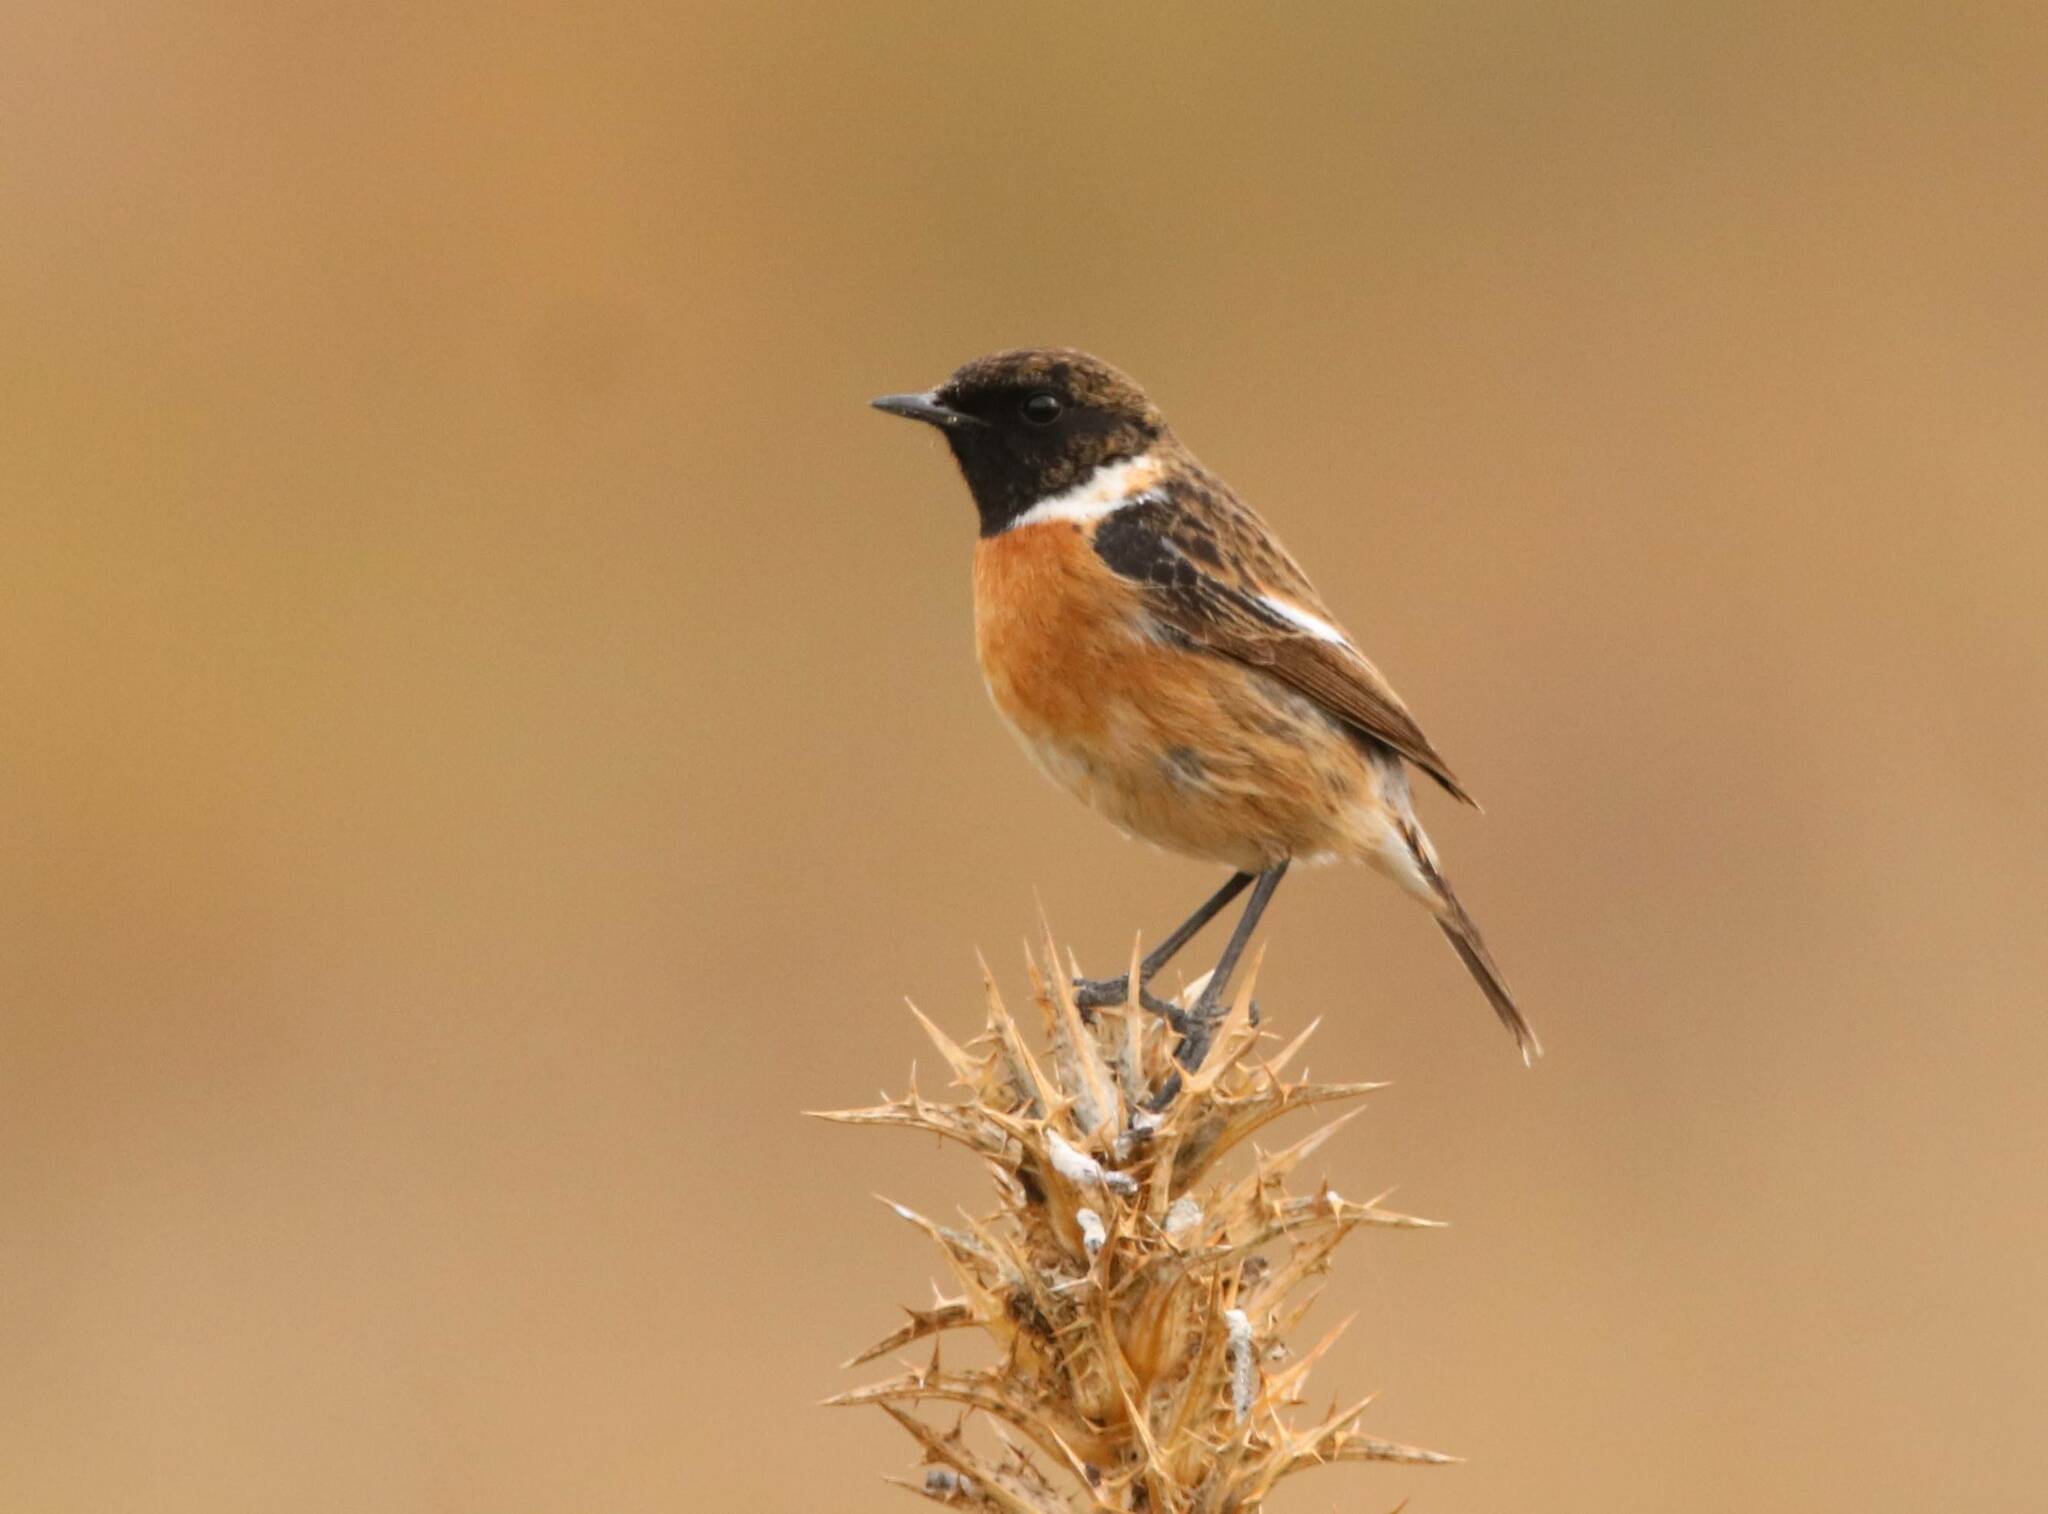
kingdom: Animalia
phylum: Chordata
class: Aves
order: Passeriformes
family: Muscicapidae
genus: Saxicola
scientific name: Saxicola rubicola
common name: European stonechat
